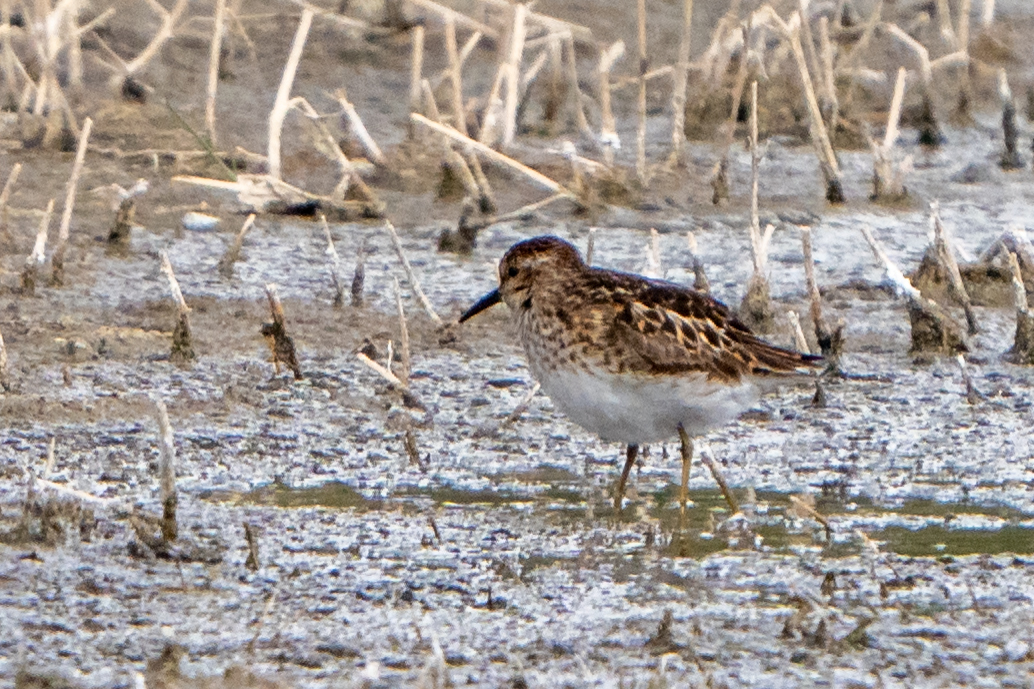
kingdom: Animalia
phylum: Chordata
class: Aves
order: Charadriiformes
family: Scolopacidae
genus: Calidris
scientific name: Calidris minutilla
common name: Least sandpiper
